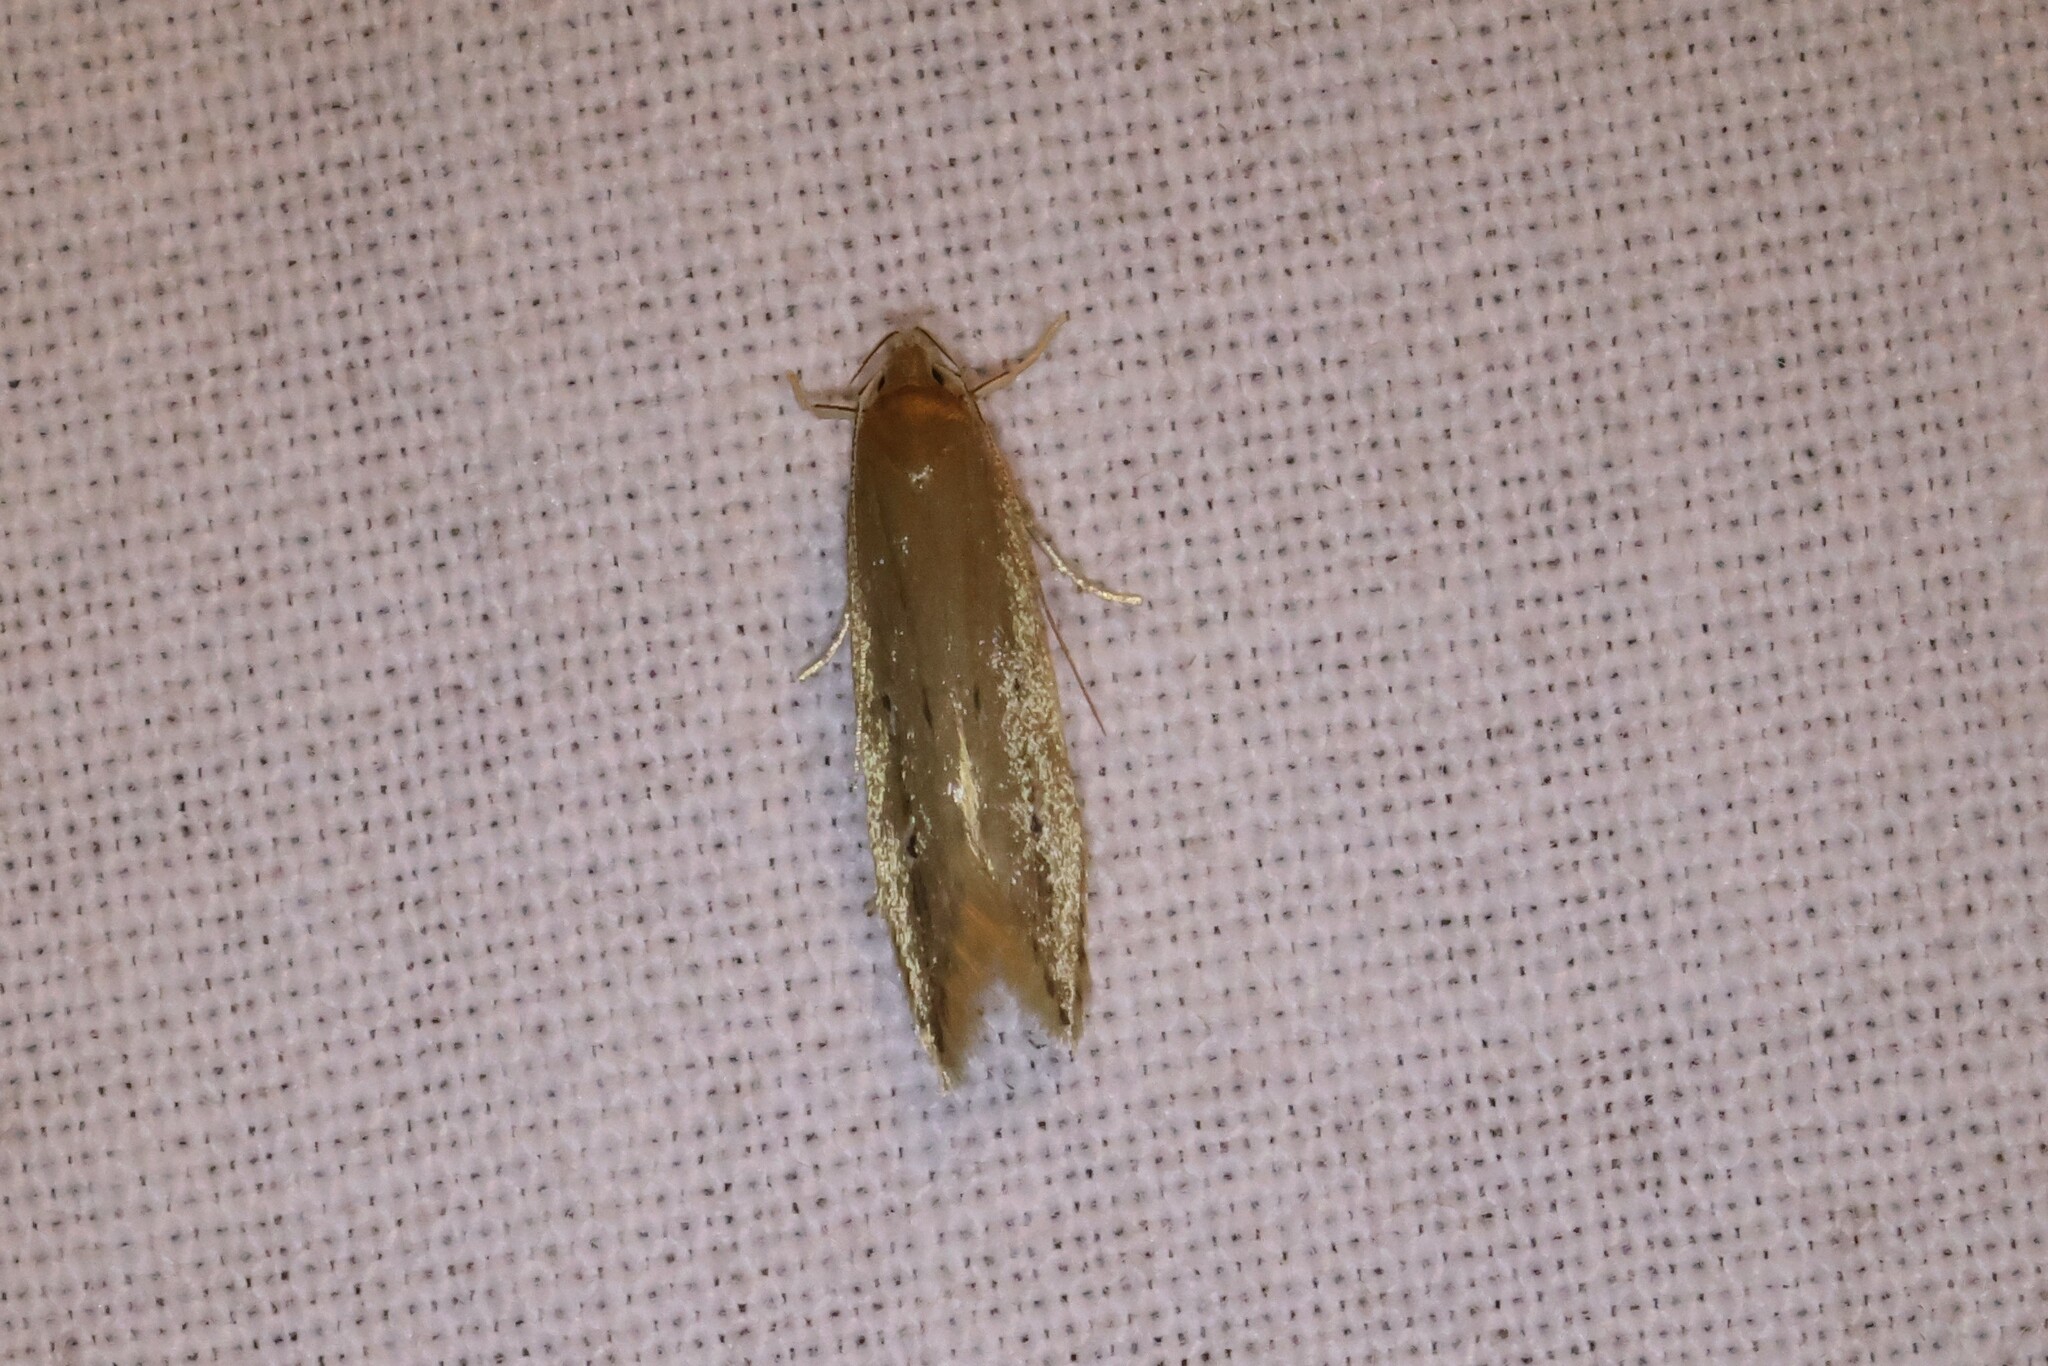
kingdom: Animalia
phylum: Arthropoda
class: Insecta
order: Lepidoptera
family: Cosmopterigidae
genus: Limnaecia
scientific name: Limnaecia phragmitella
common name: Bulrush cosmet
